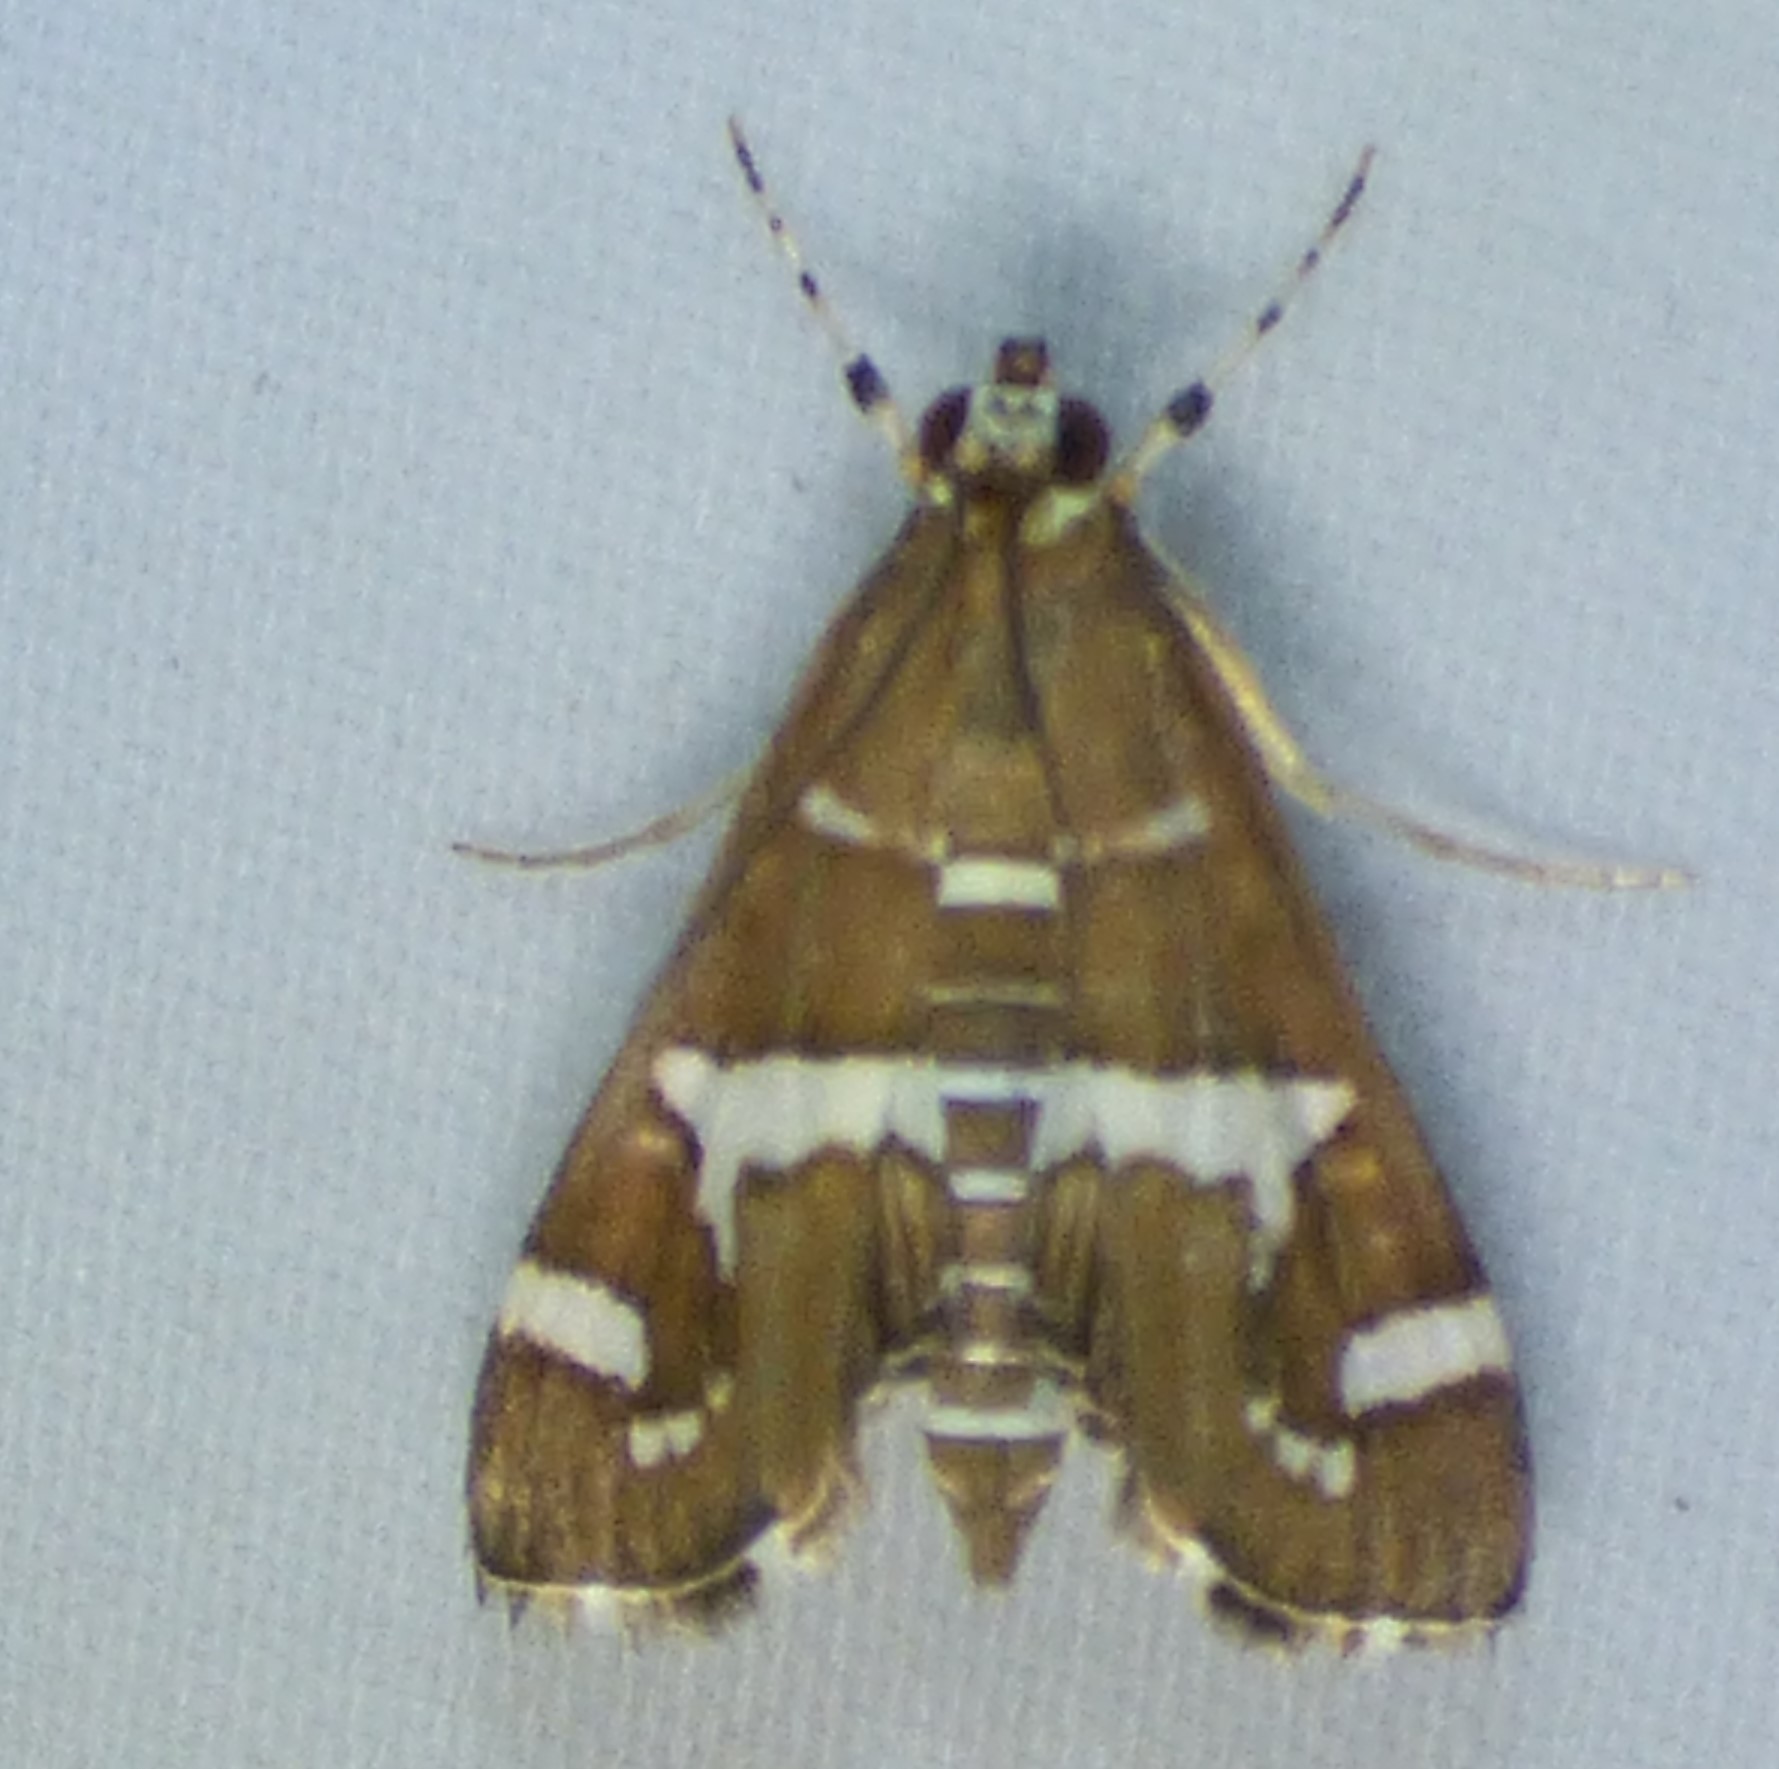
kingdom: Animalia
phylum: Arthropoda
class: Insecta
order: Lepidoptera
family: Crambidae
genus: Spoladea
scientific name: Spoladea recurvalis
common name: Beet webworm moth
